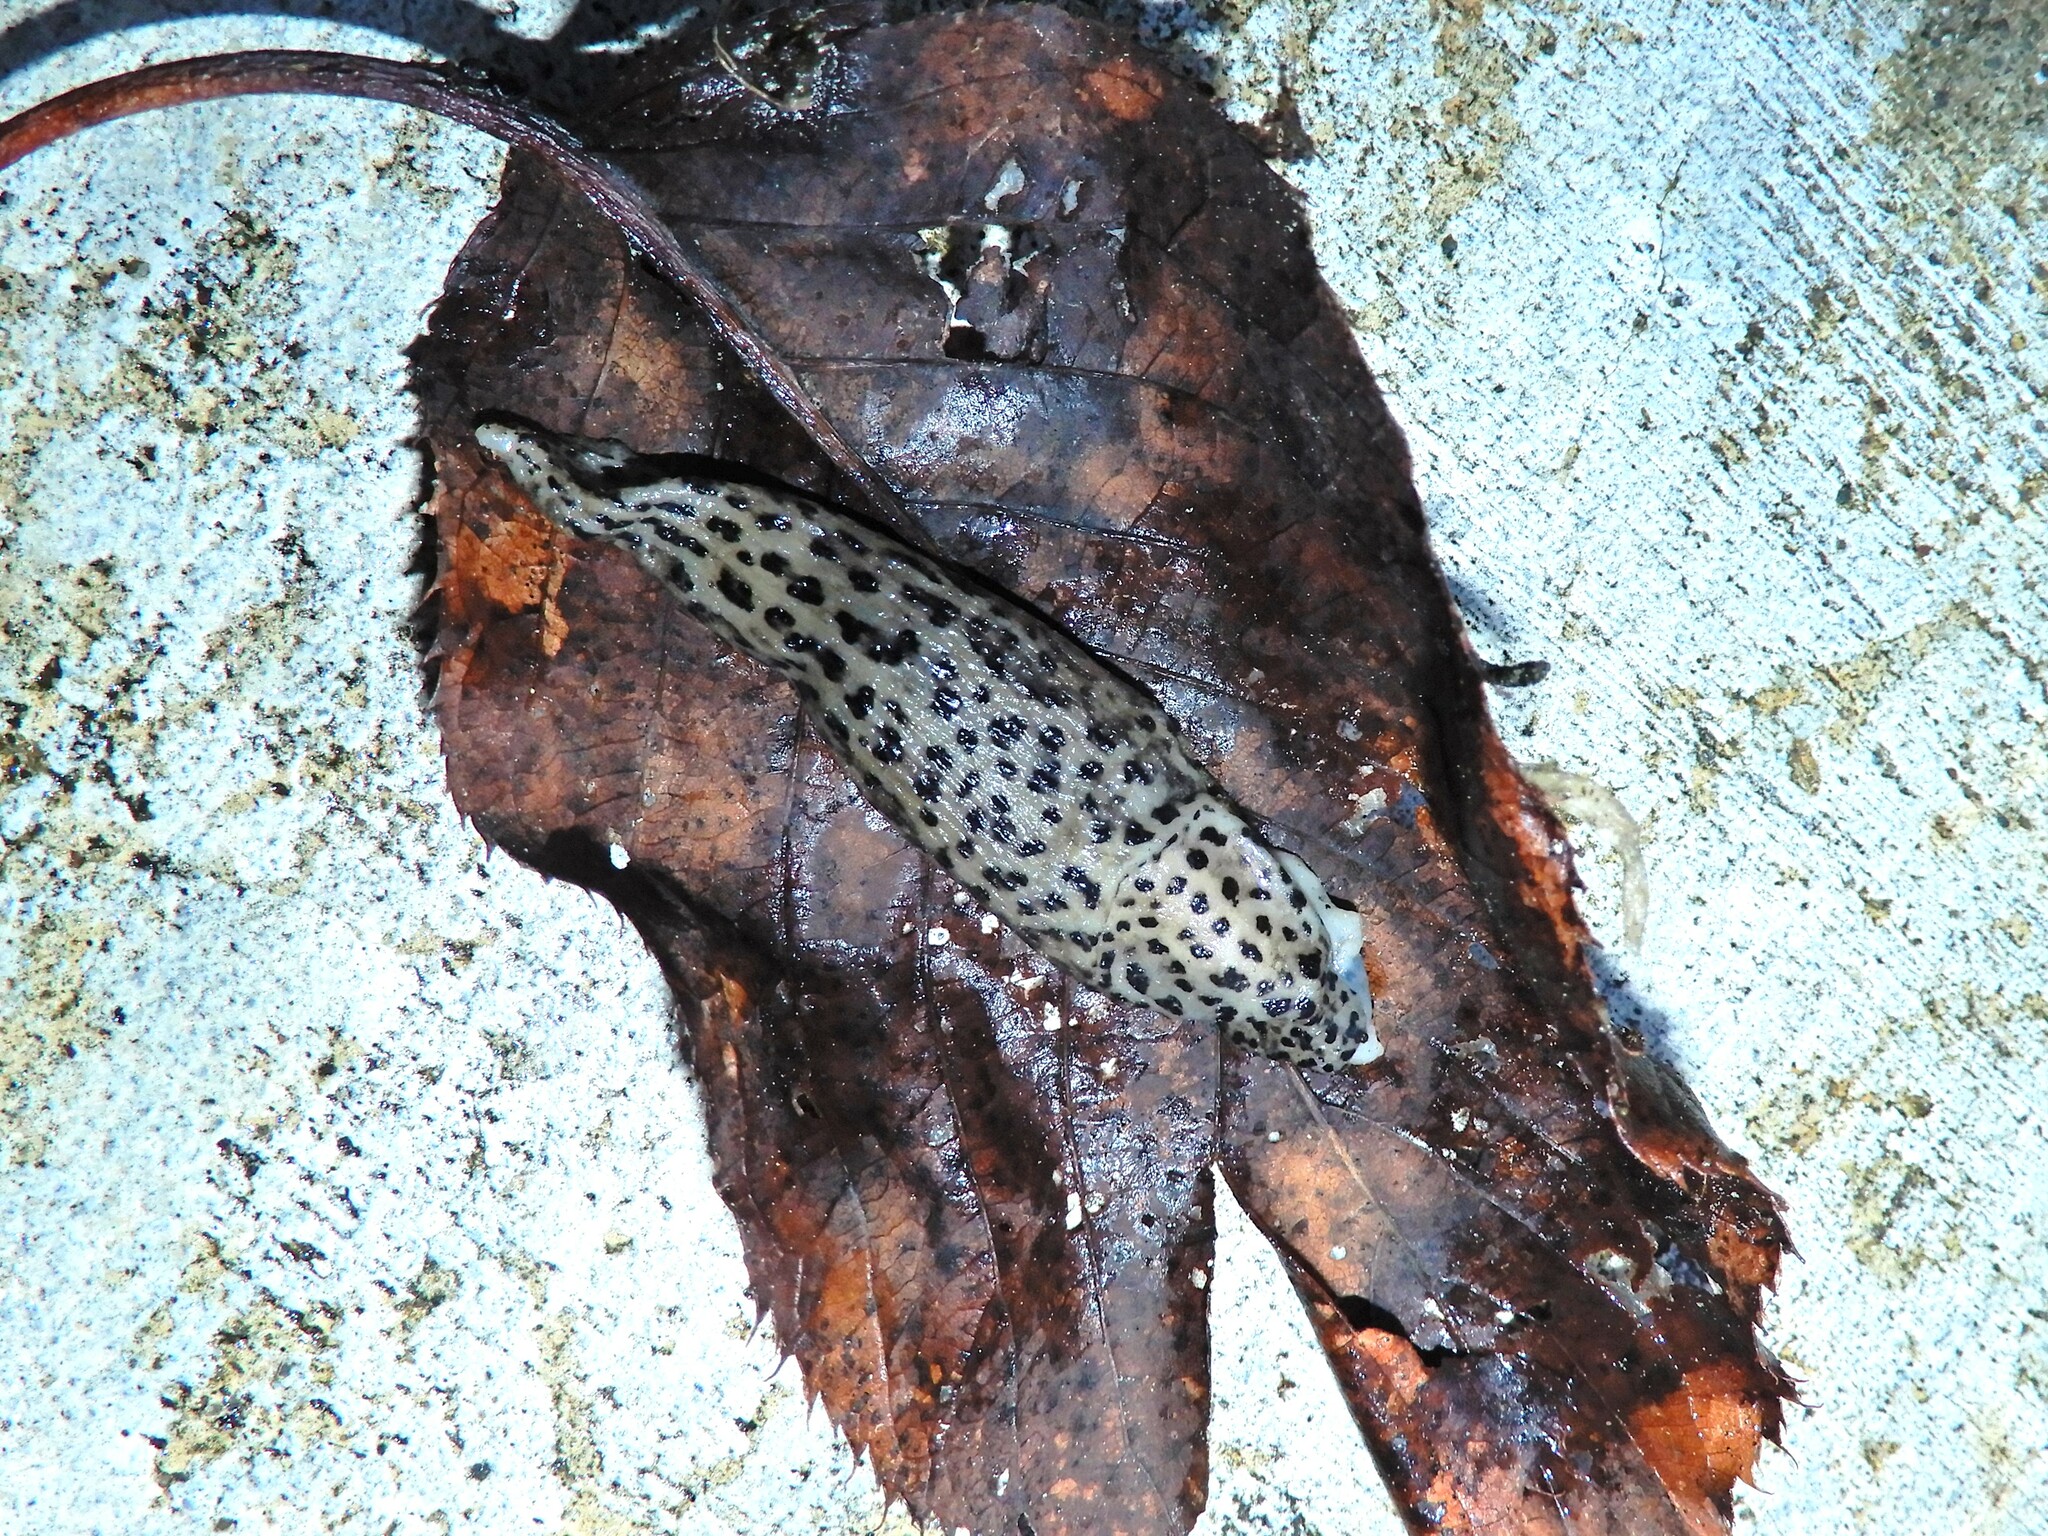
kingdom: Animalia
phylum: Mollusca
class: Gastropoda
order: Stylommatophora
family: Limacidae
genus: Limax
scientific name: Limax maximus
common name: Great grey slug
